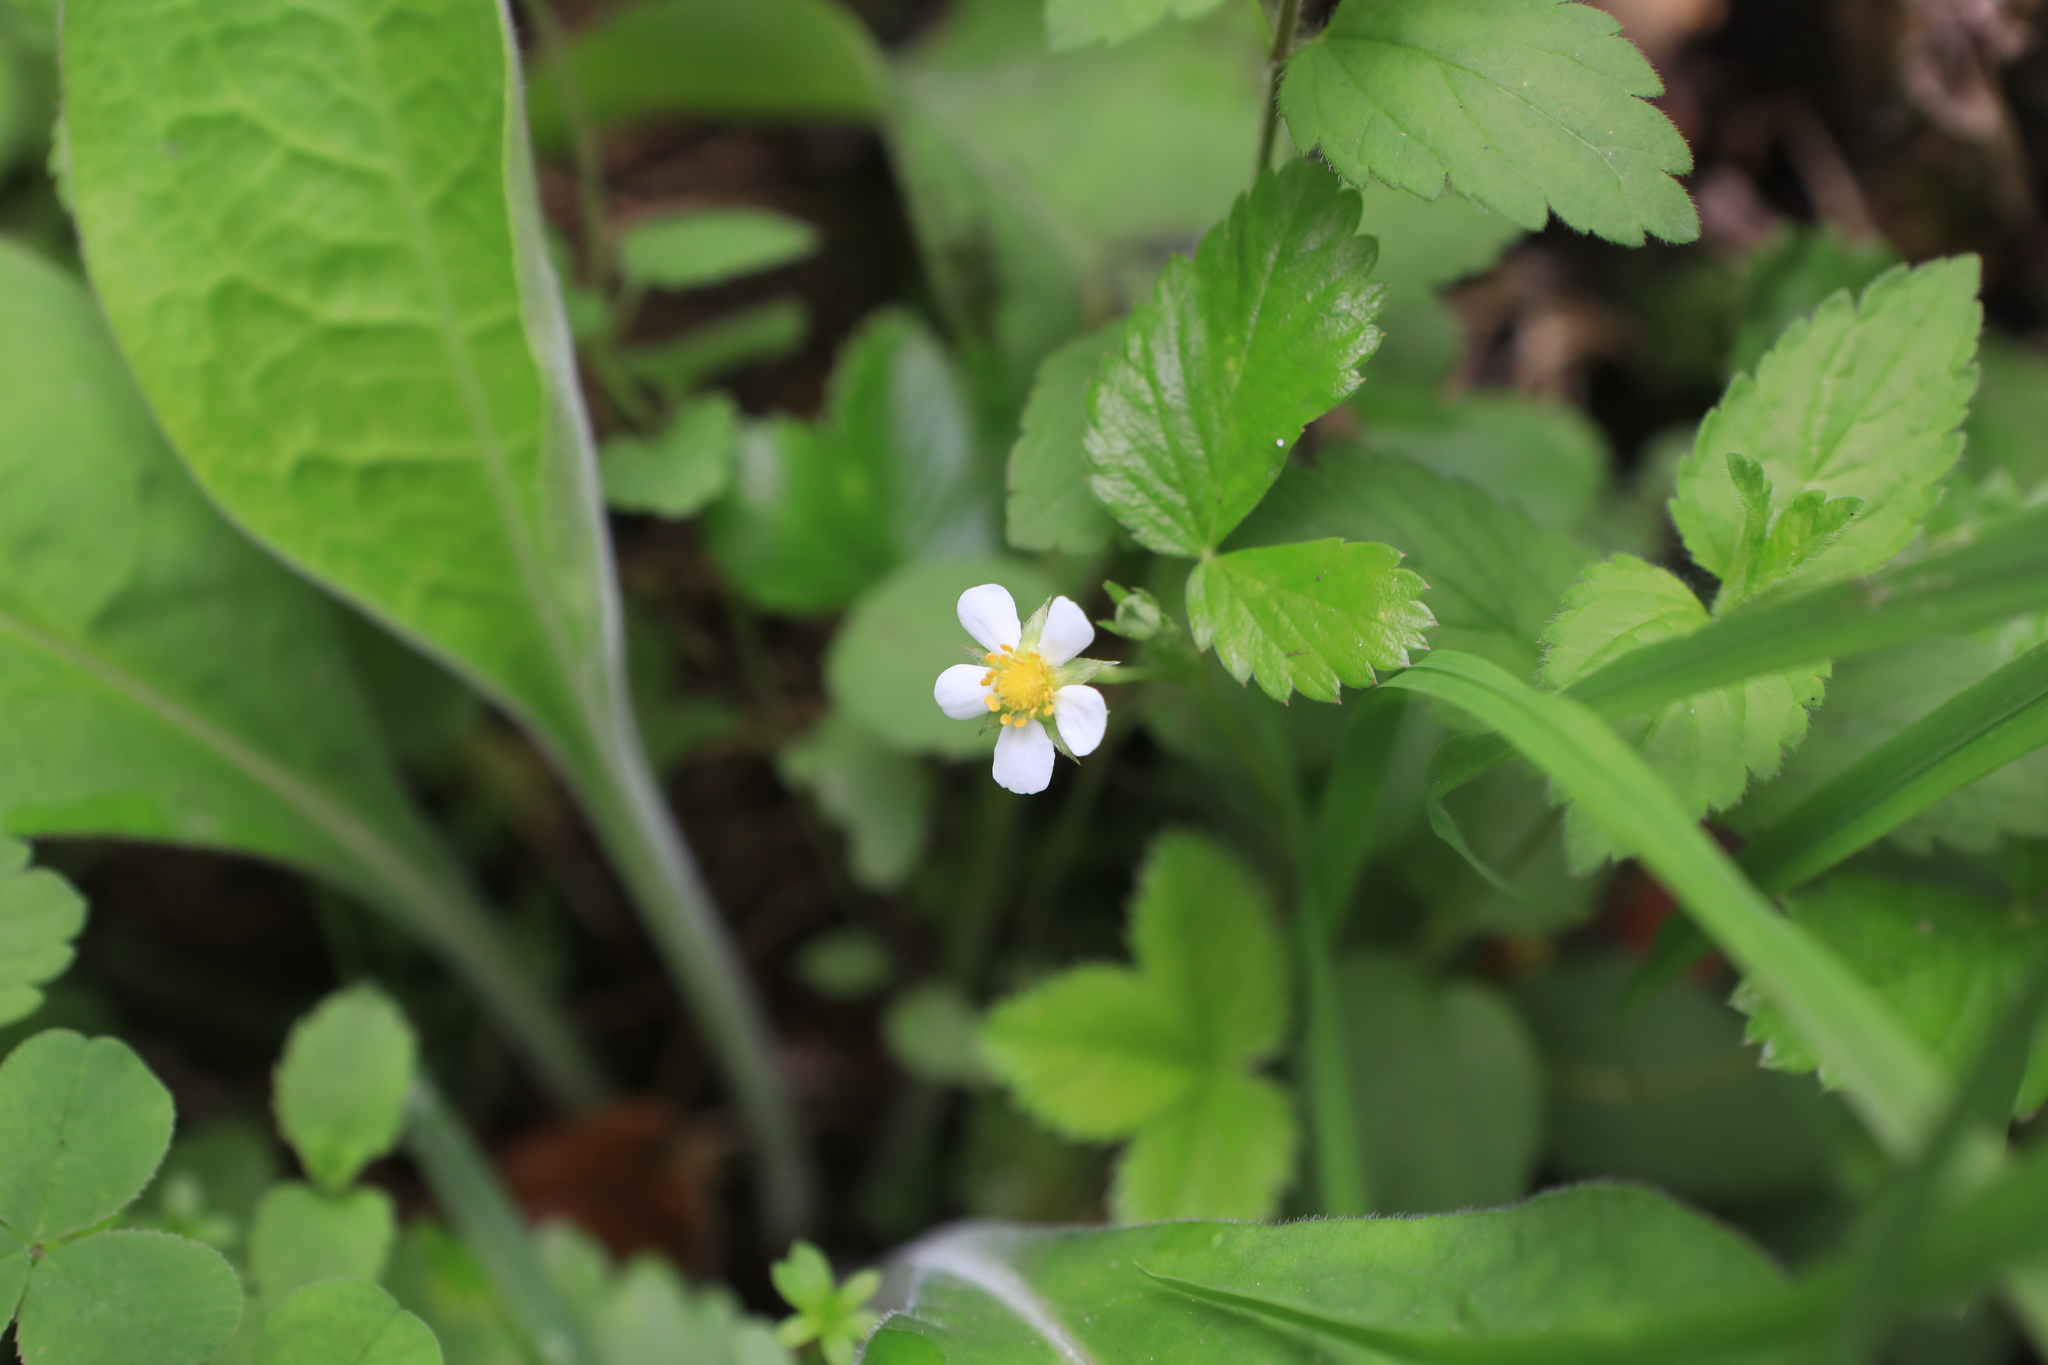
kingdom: Plantae
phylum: Tracheophyta
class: Magnoliopsida
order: Rosales
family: Rosaceae
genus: Fragaria
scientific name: Fragaria vesca
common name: Wild strawberry
